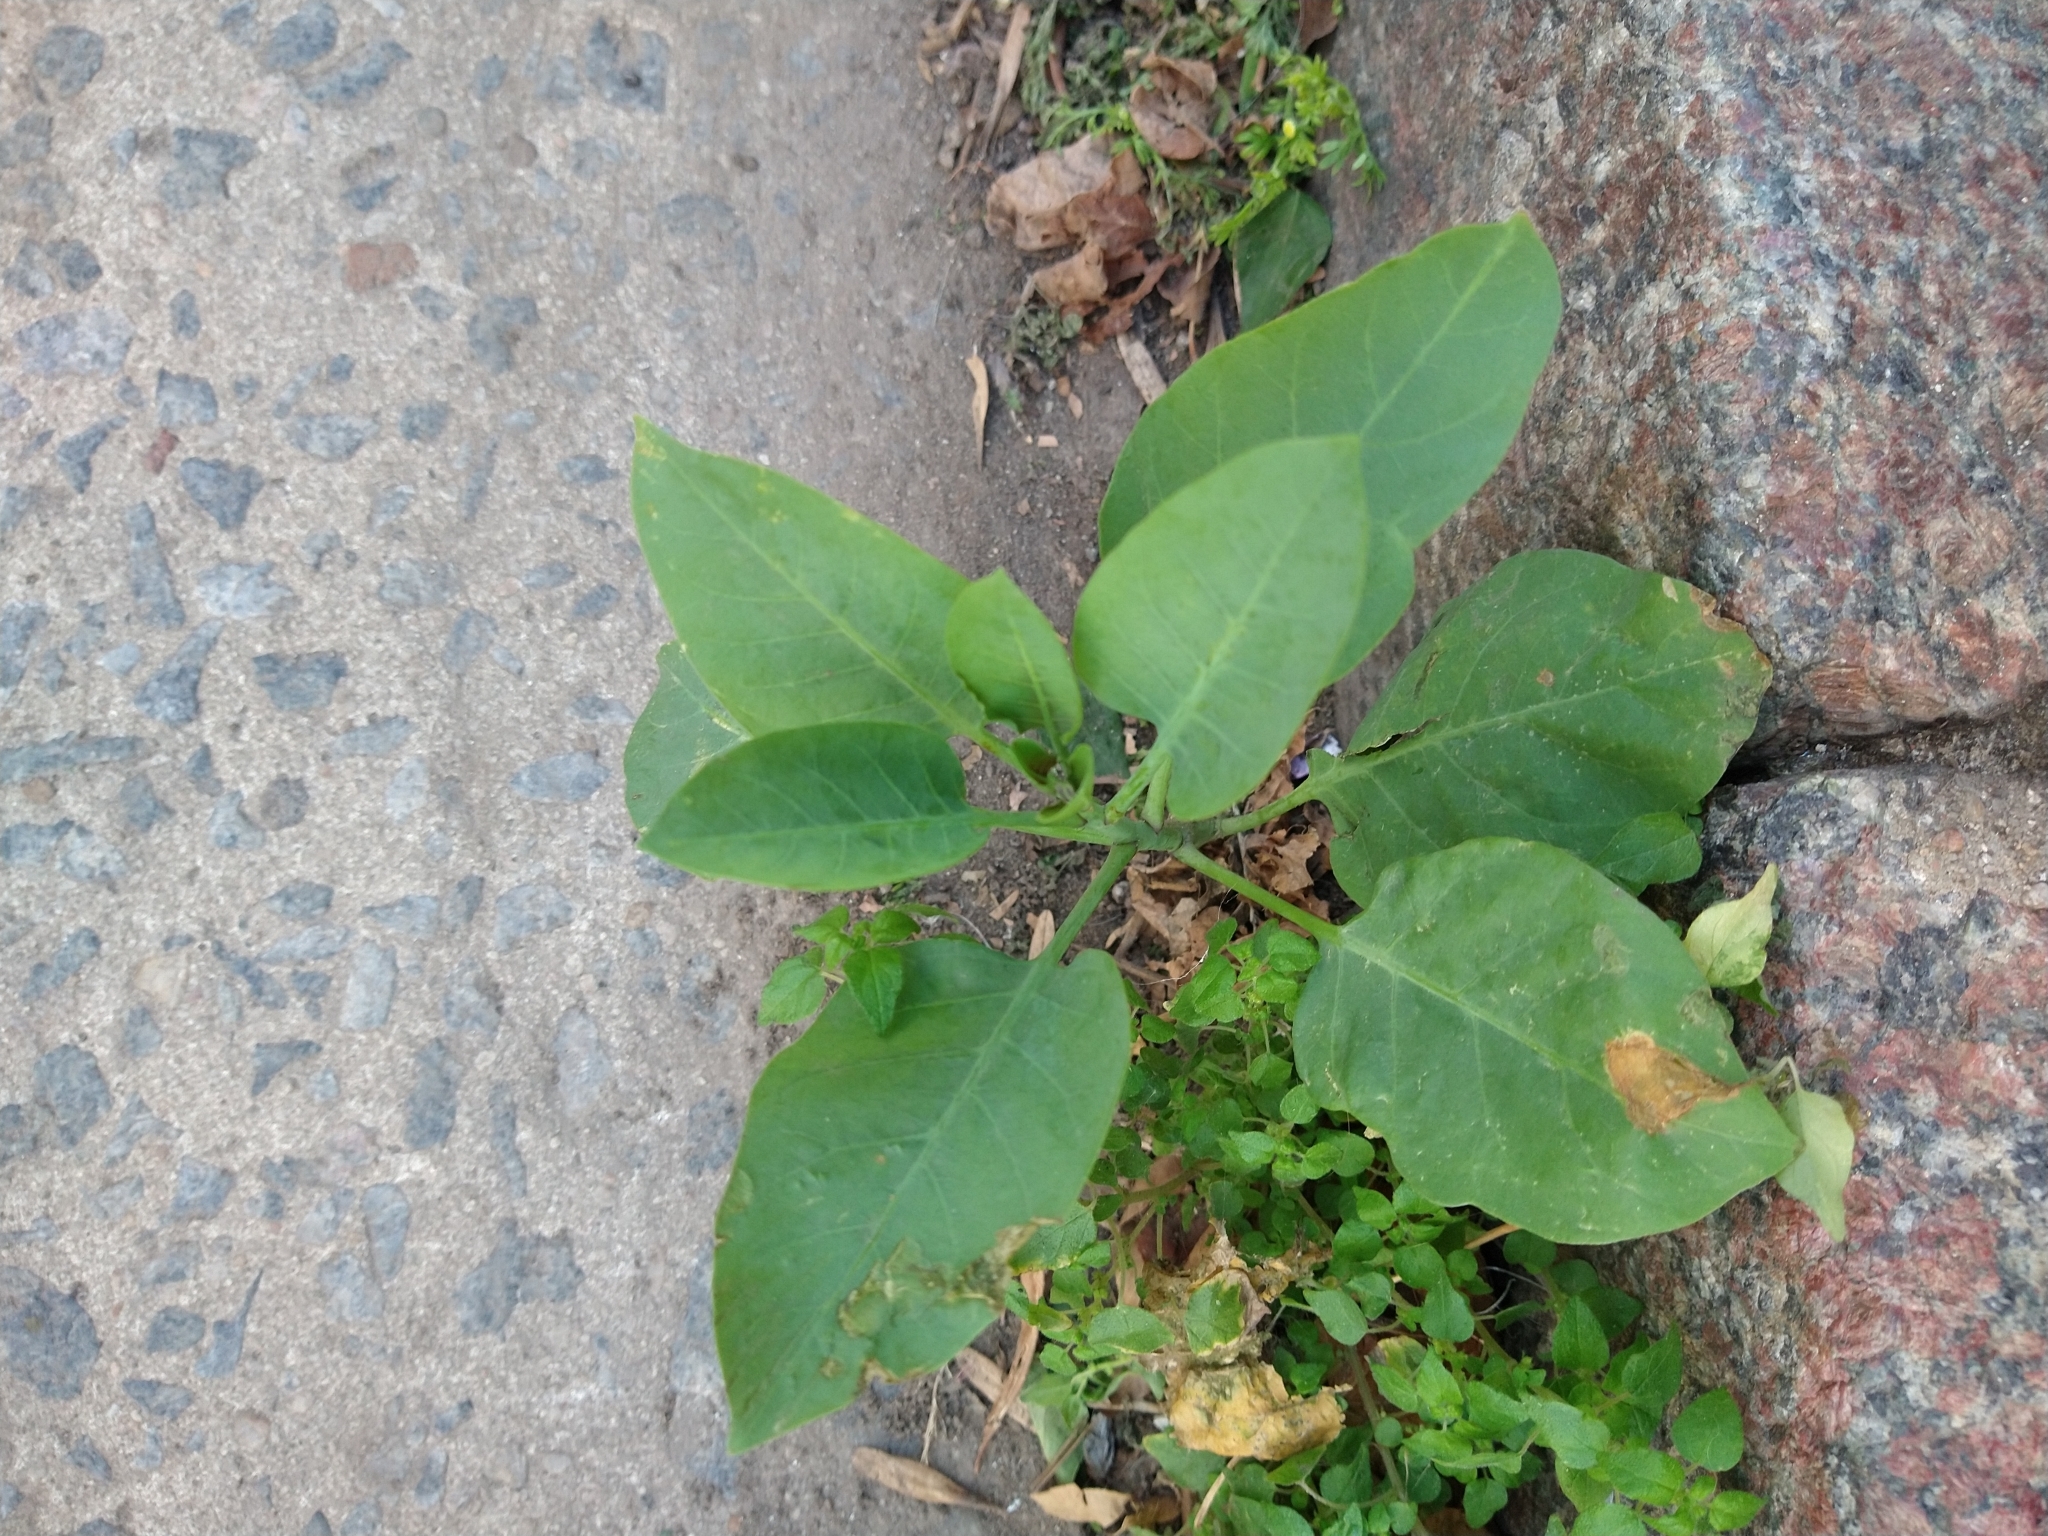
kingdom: Plantae
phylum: Tracheophyta
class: Magnoliopsida
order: Solanales
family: Solanaceae
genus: Nicotiana
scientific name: Nicotiana glauca
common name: Tree tobacco
